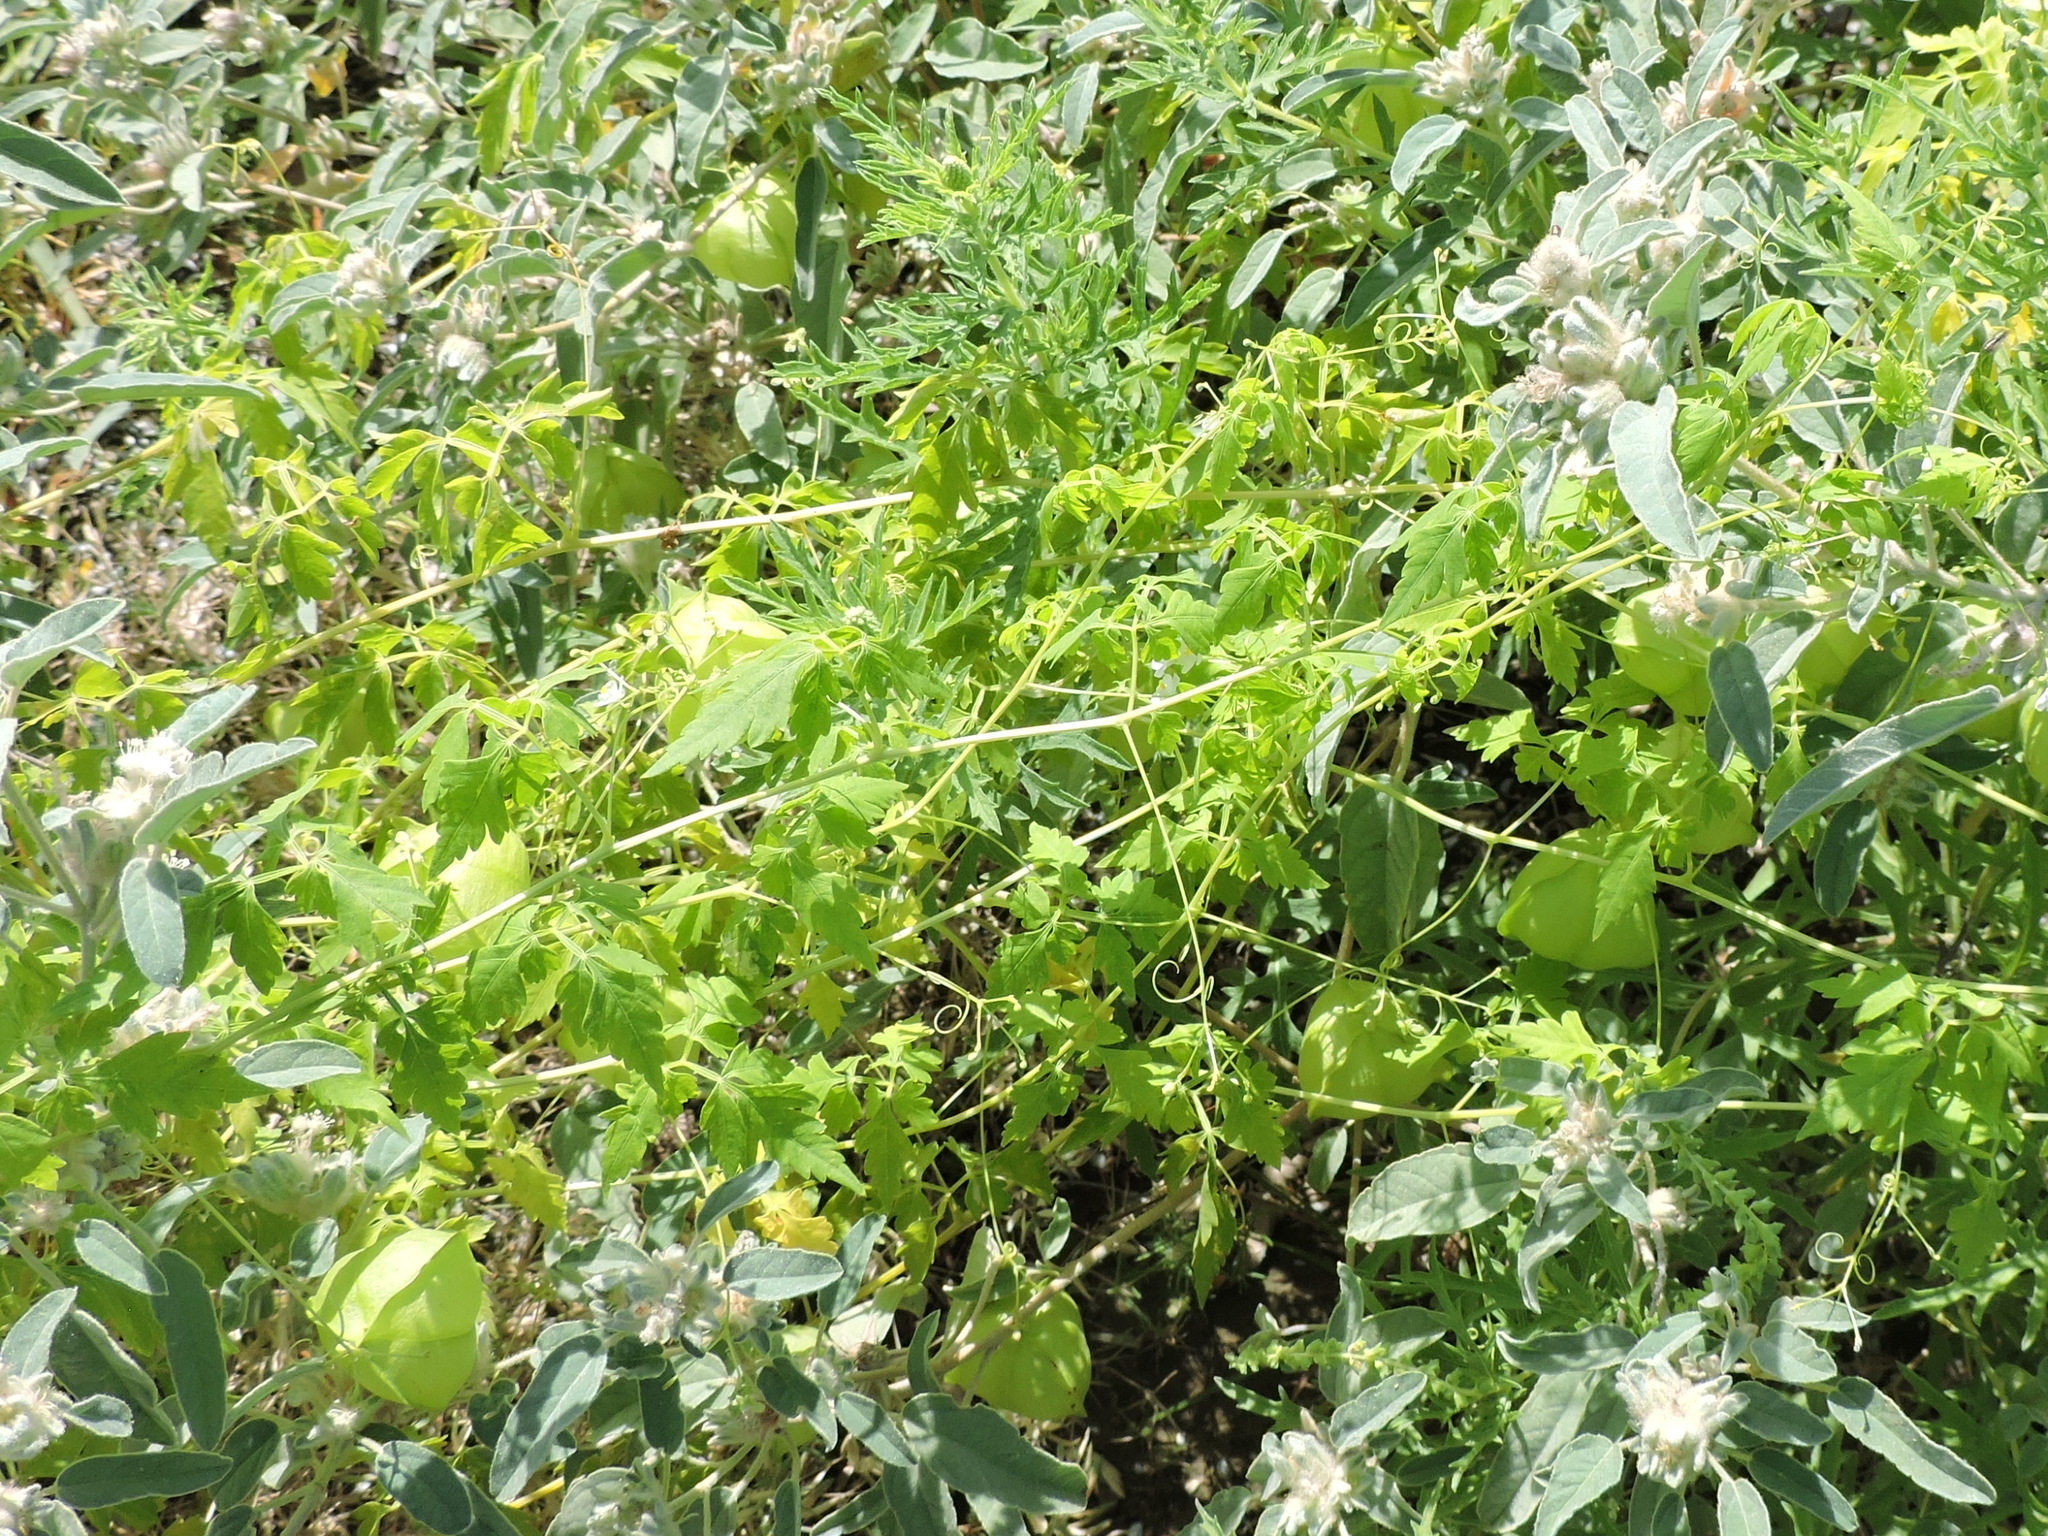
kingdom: Plantae
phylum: Tracheophyta
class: Magnoliopsida
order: Sapindales
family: Sapindaceae
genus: Cardiospermum
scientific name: Cardiospermum halicacabum
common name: Balloon vine
